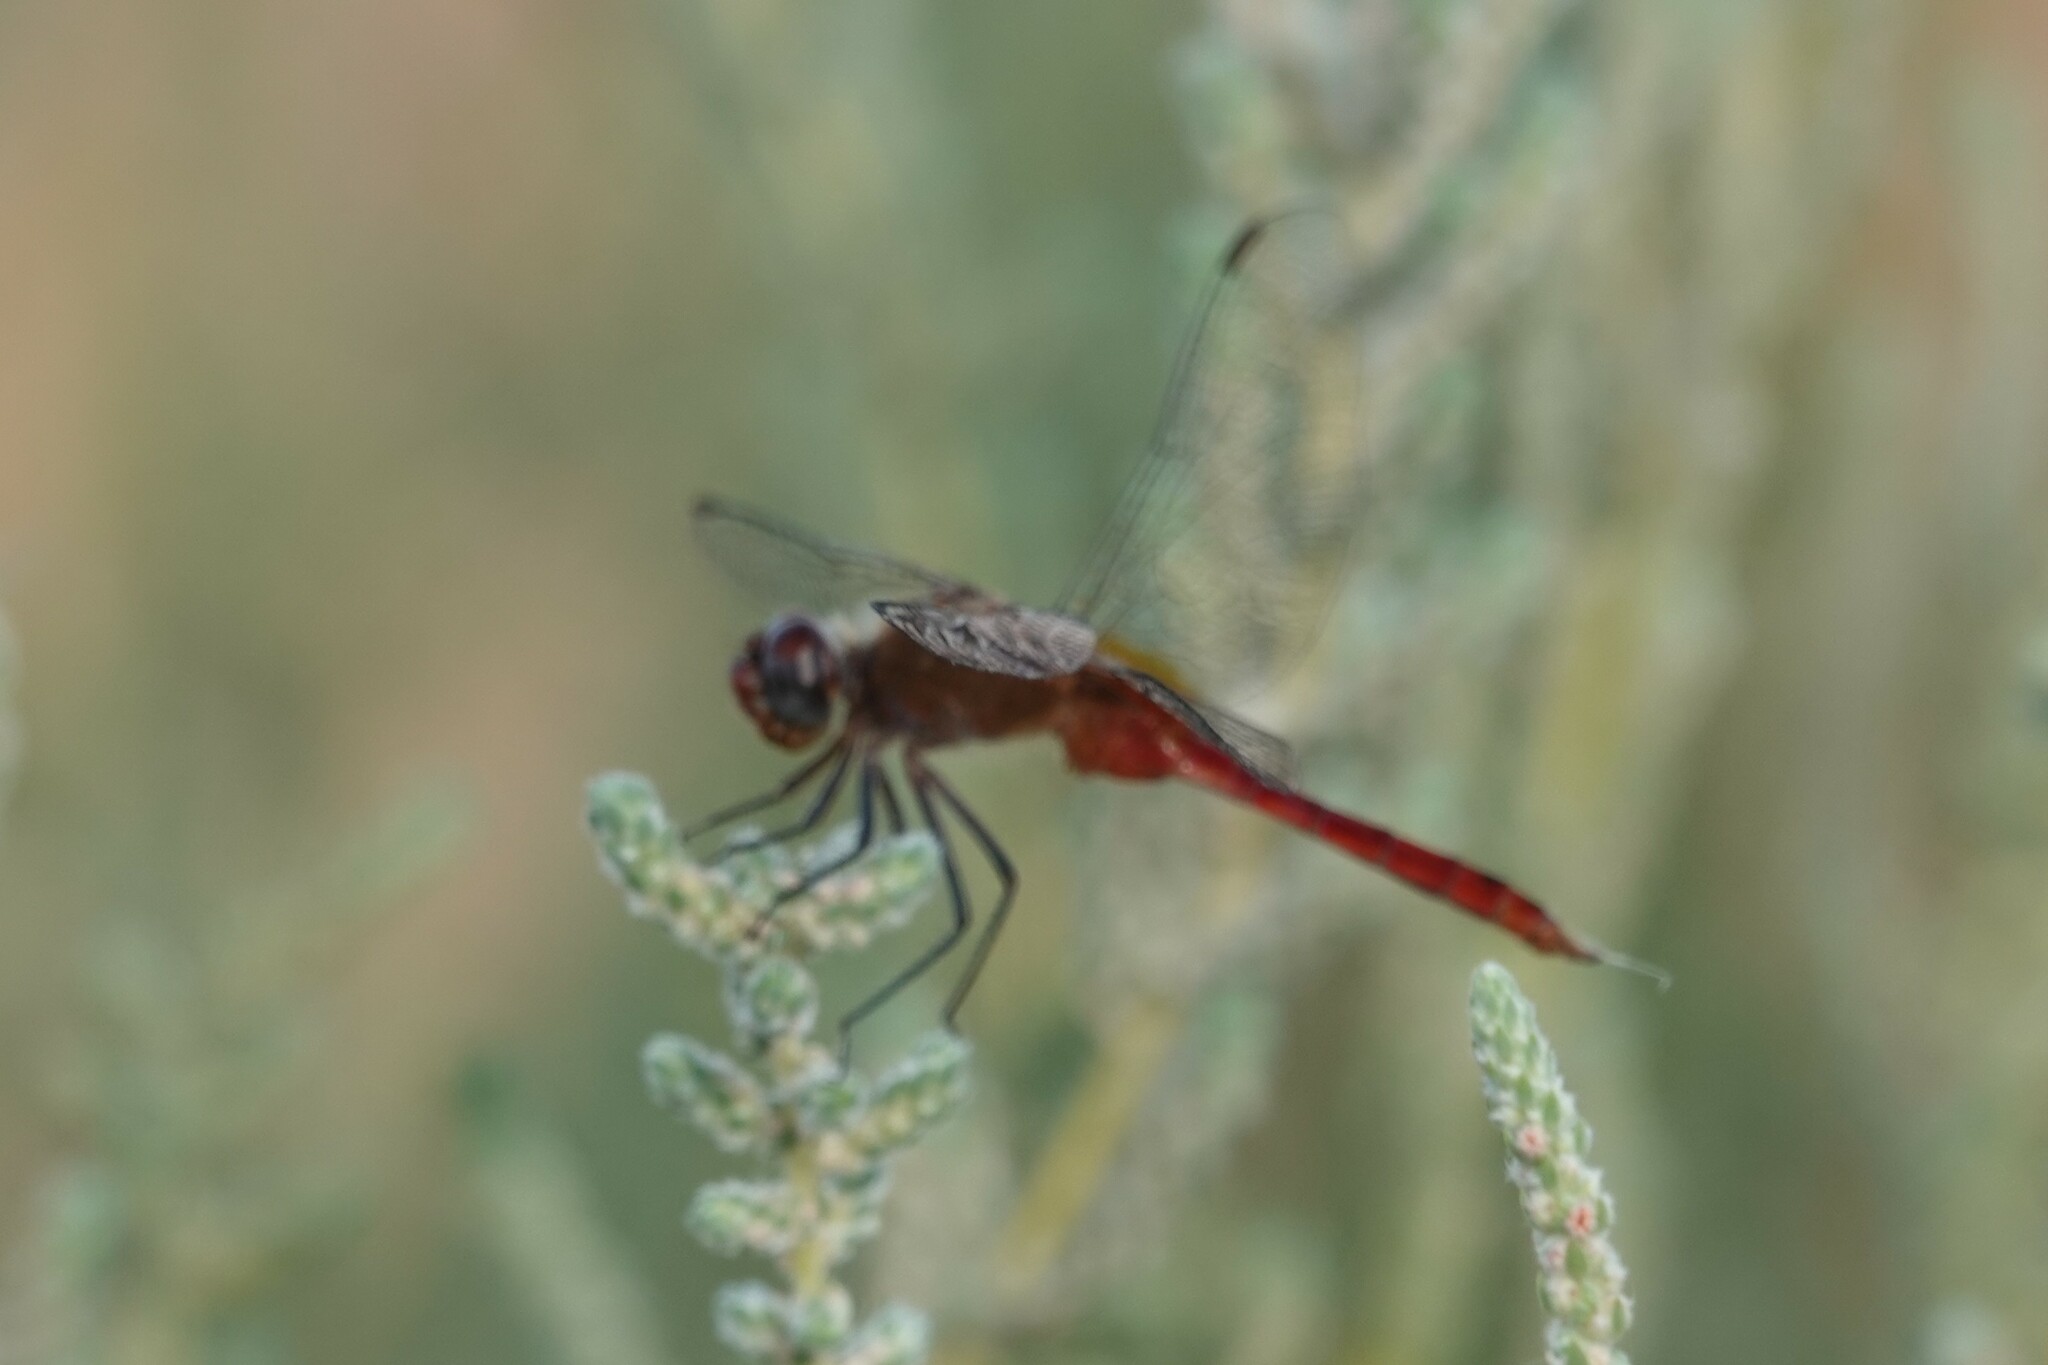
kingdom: Animalia
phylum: Arthropoda
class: Insecta
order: Odonata
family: Libellulidae
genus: Brachymesia
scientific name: Brachymesia furcata
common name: Red-taled pennant
